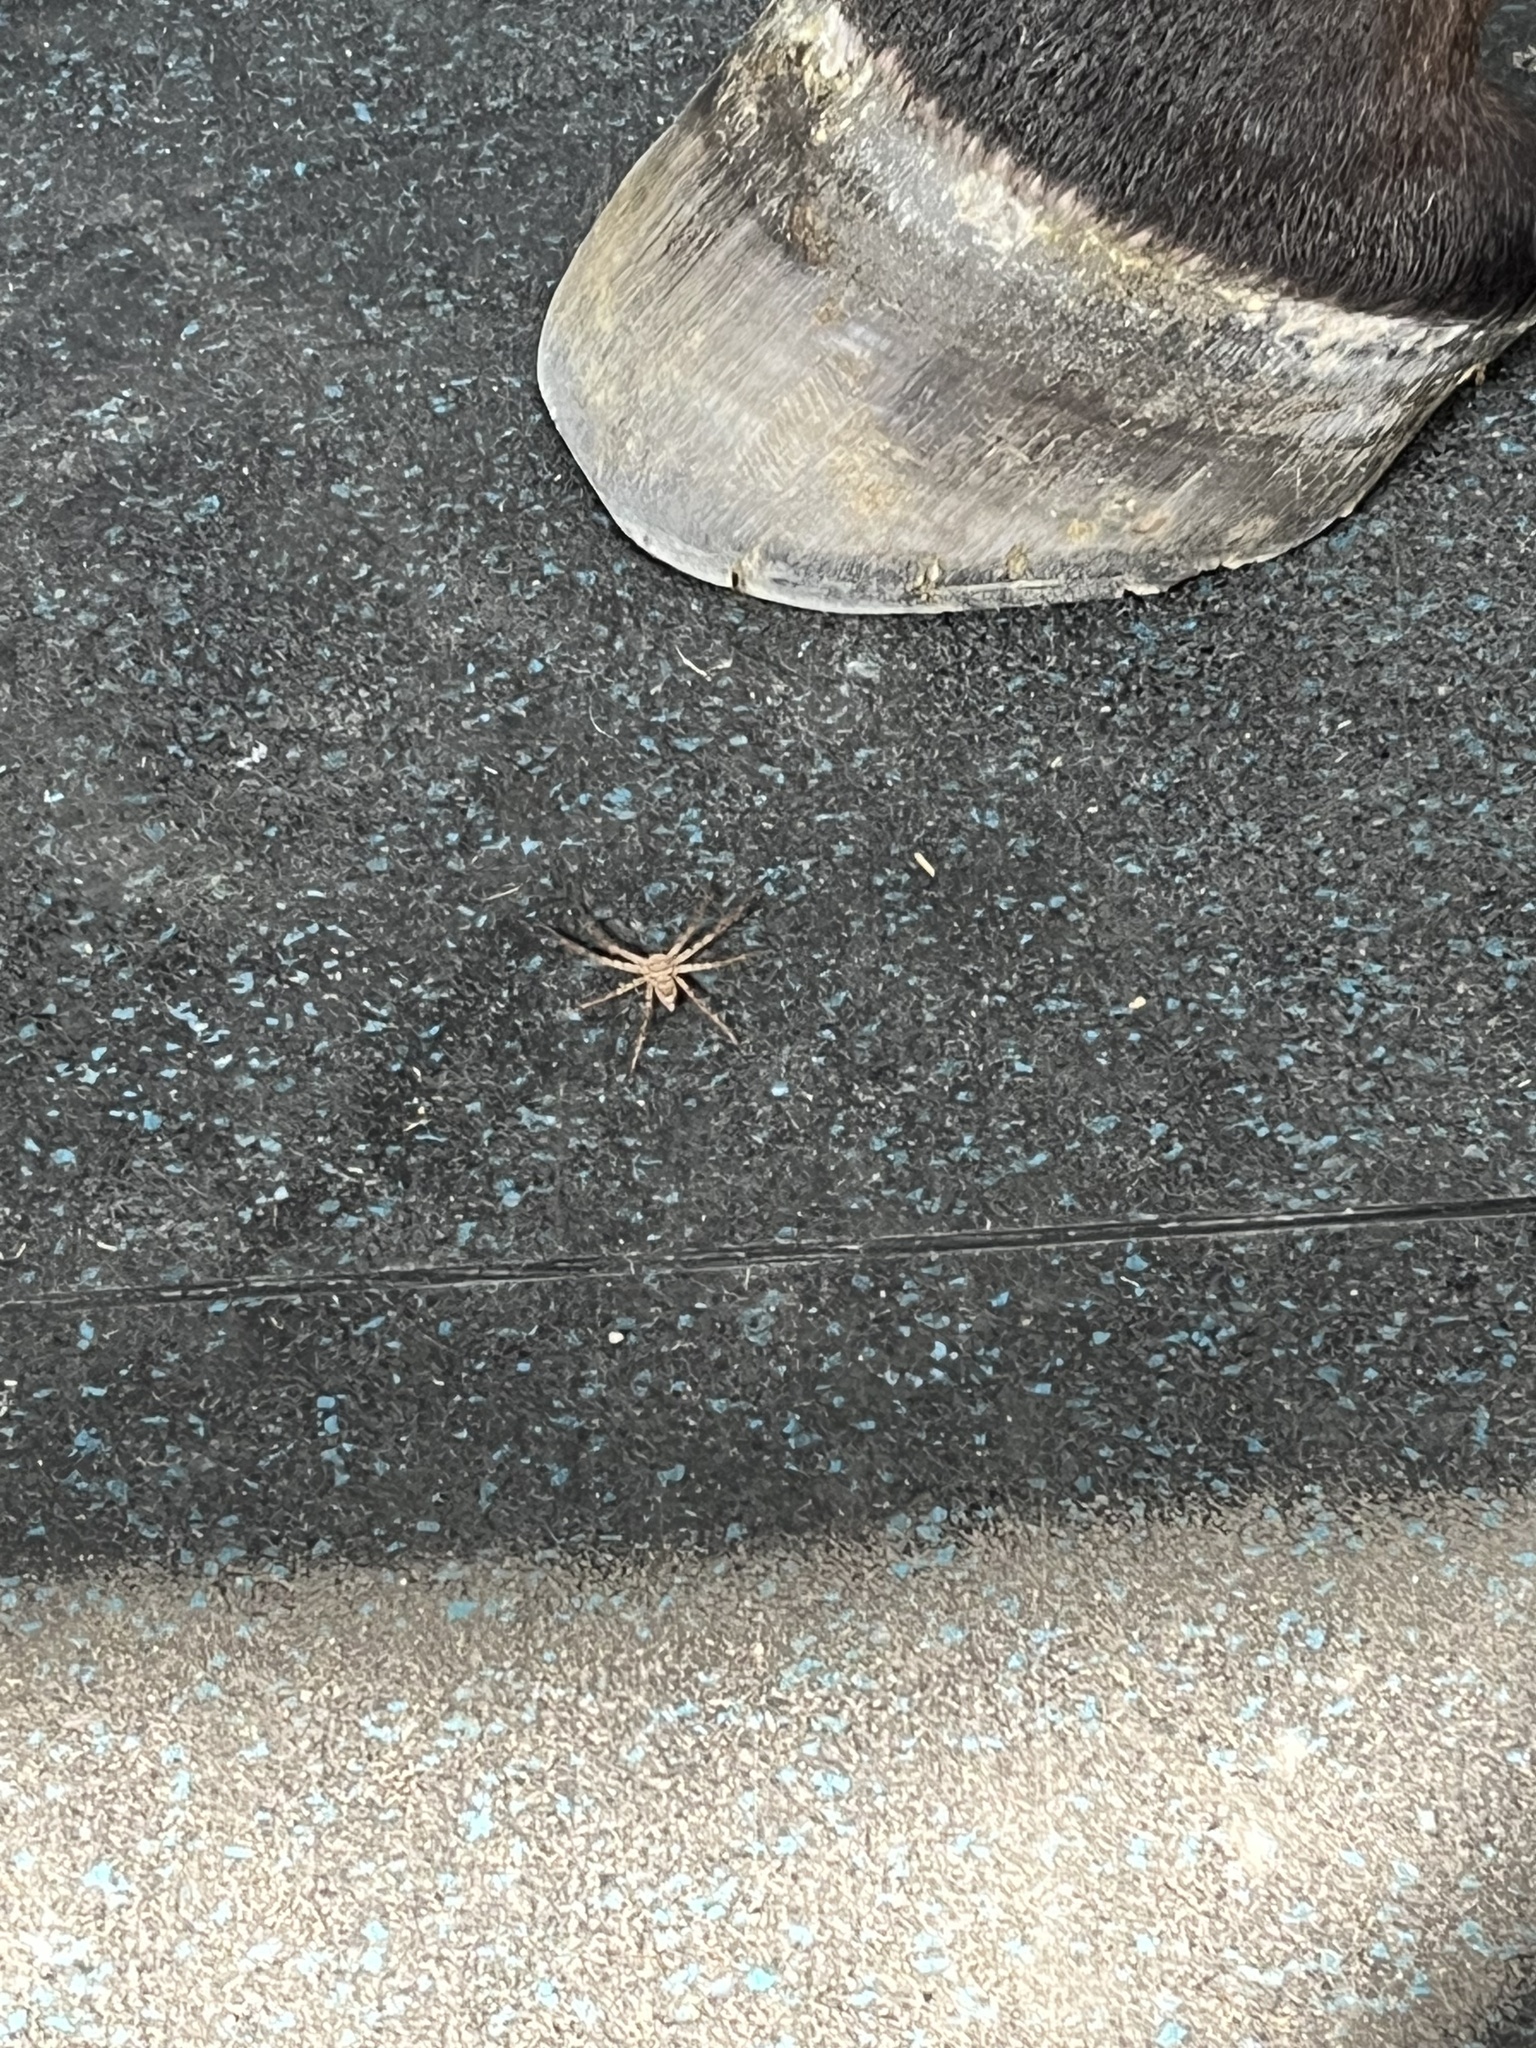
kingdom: Animalia
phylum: Arthropoda
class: Arachnida
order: Araneae
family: Sparassidae
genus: Heteropoda
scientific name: Heteropoda venatoria
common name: Huntsman spider
